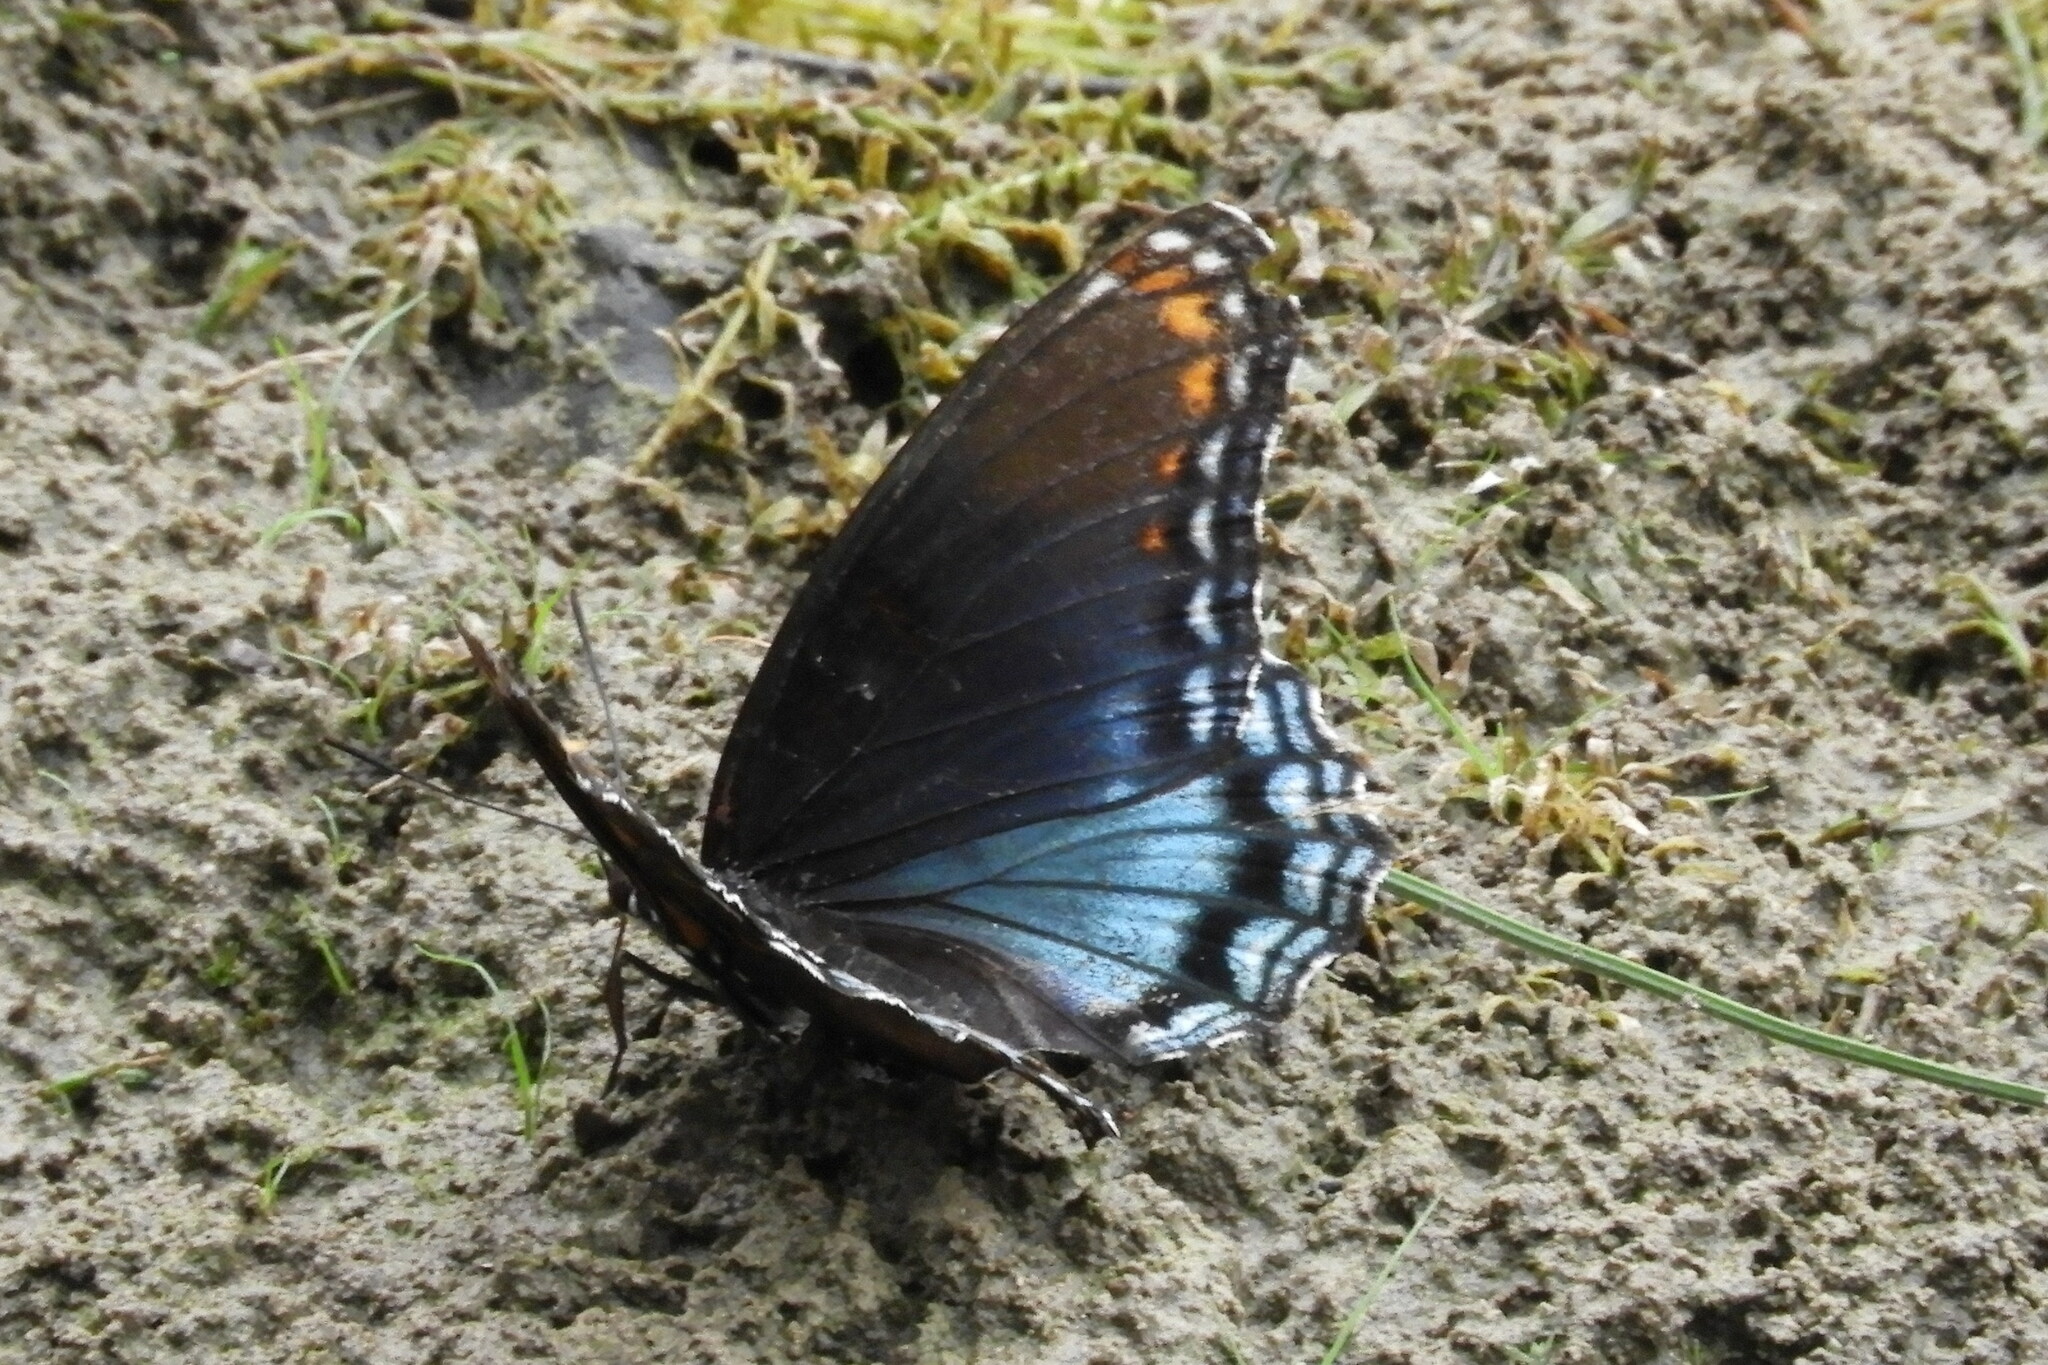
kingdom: Animalia
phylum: Arthropoda
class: Insecta
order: Lepidoptera
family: Nymphalidae
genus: Limenitis
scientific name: Limenitis astyanax
